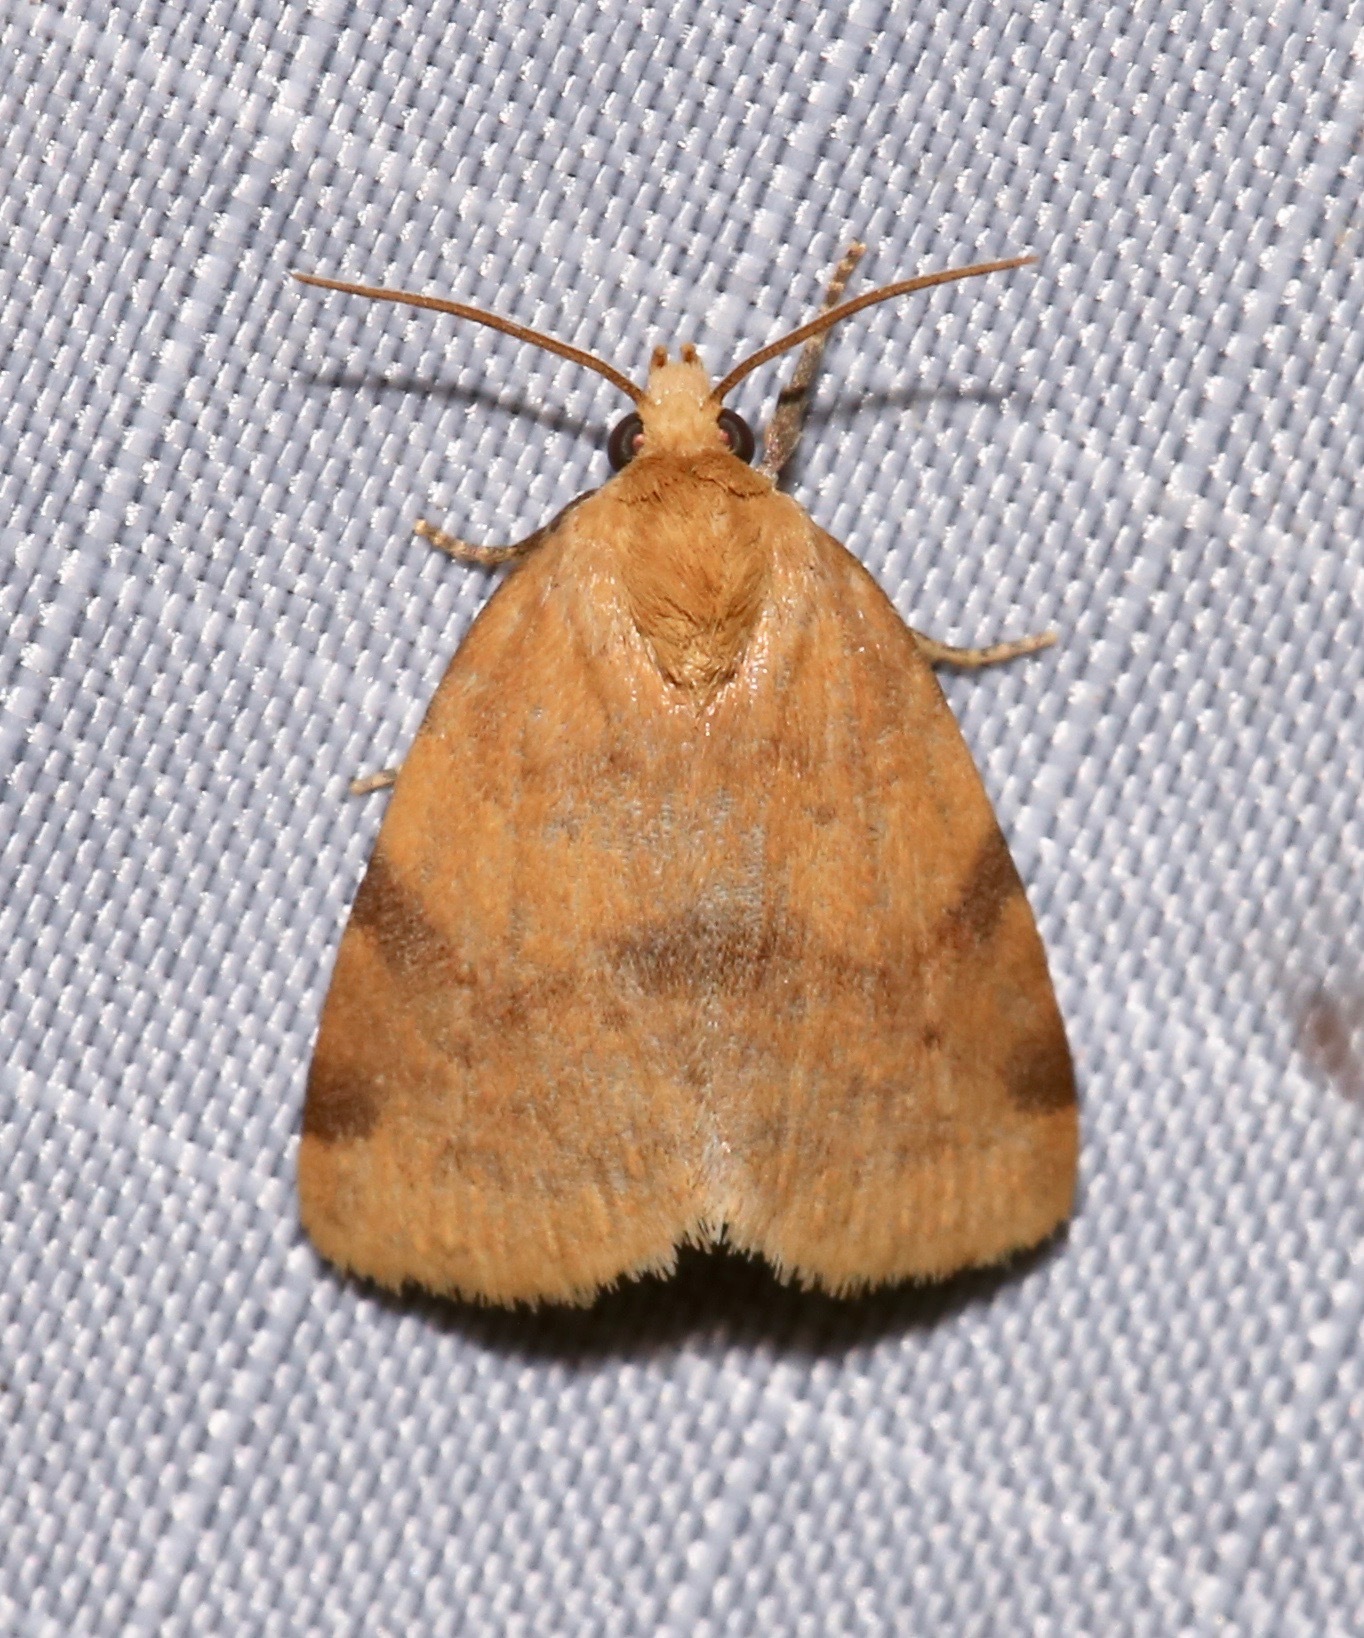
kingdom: Animalia
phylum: Arthropoda
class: Insecta
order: Lepidoptera
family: Noctuidae
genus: Azenia
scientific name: Azenia procida
